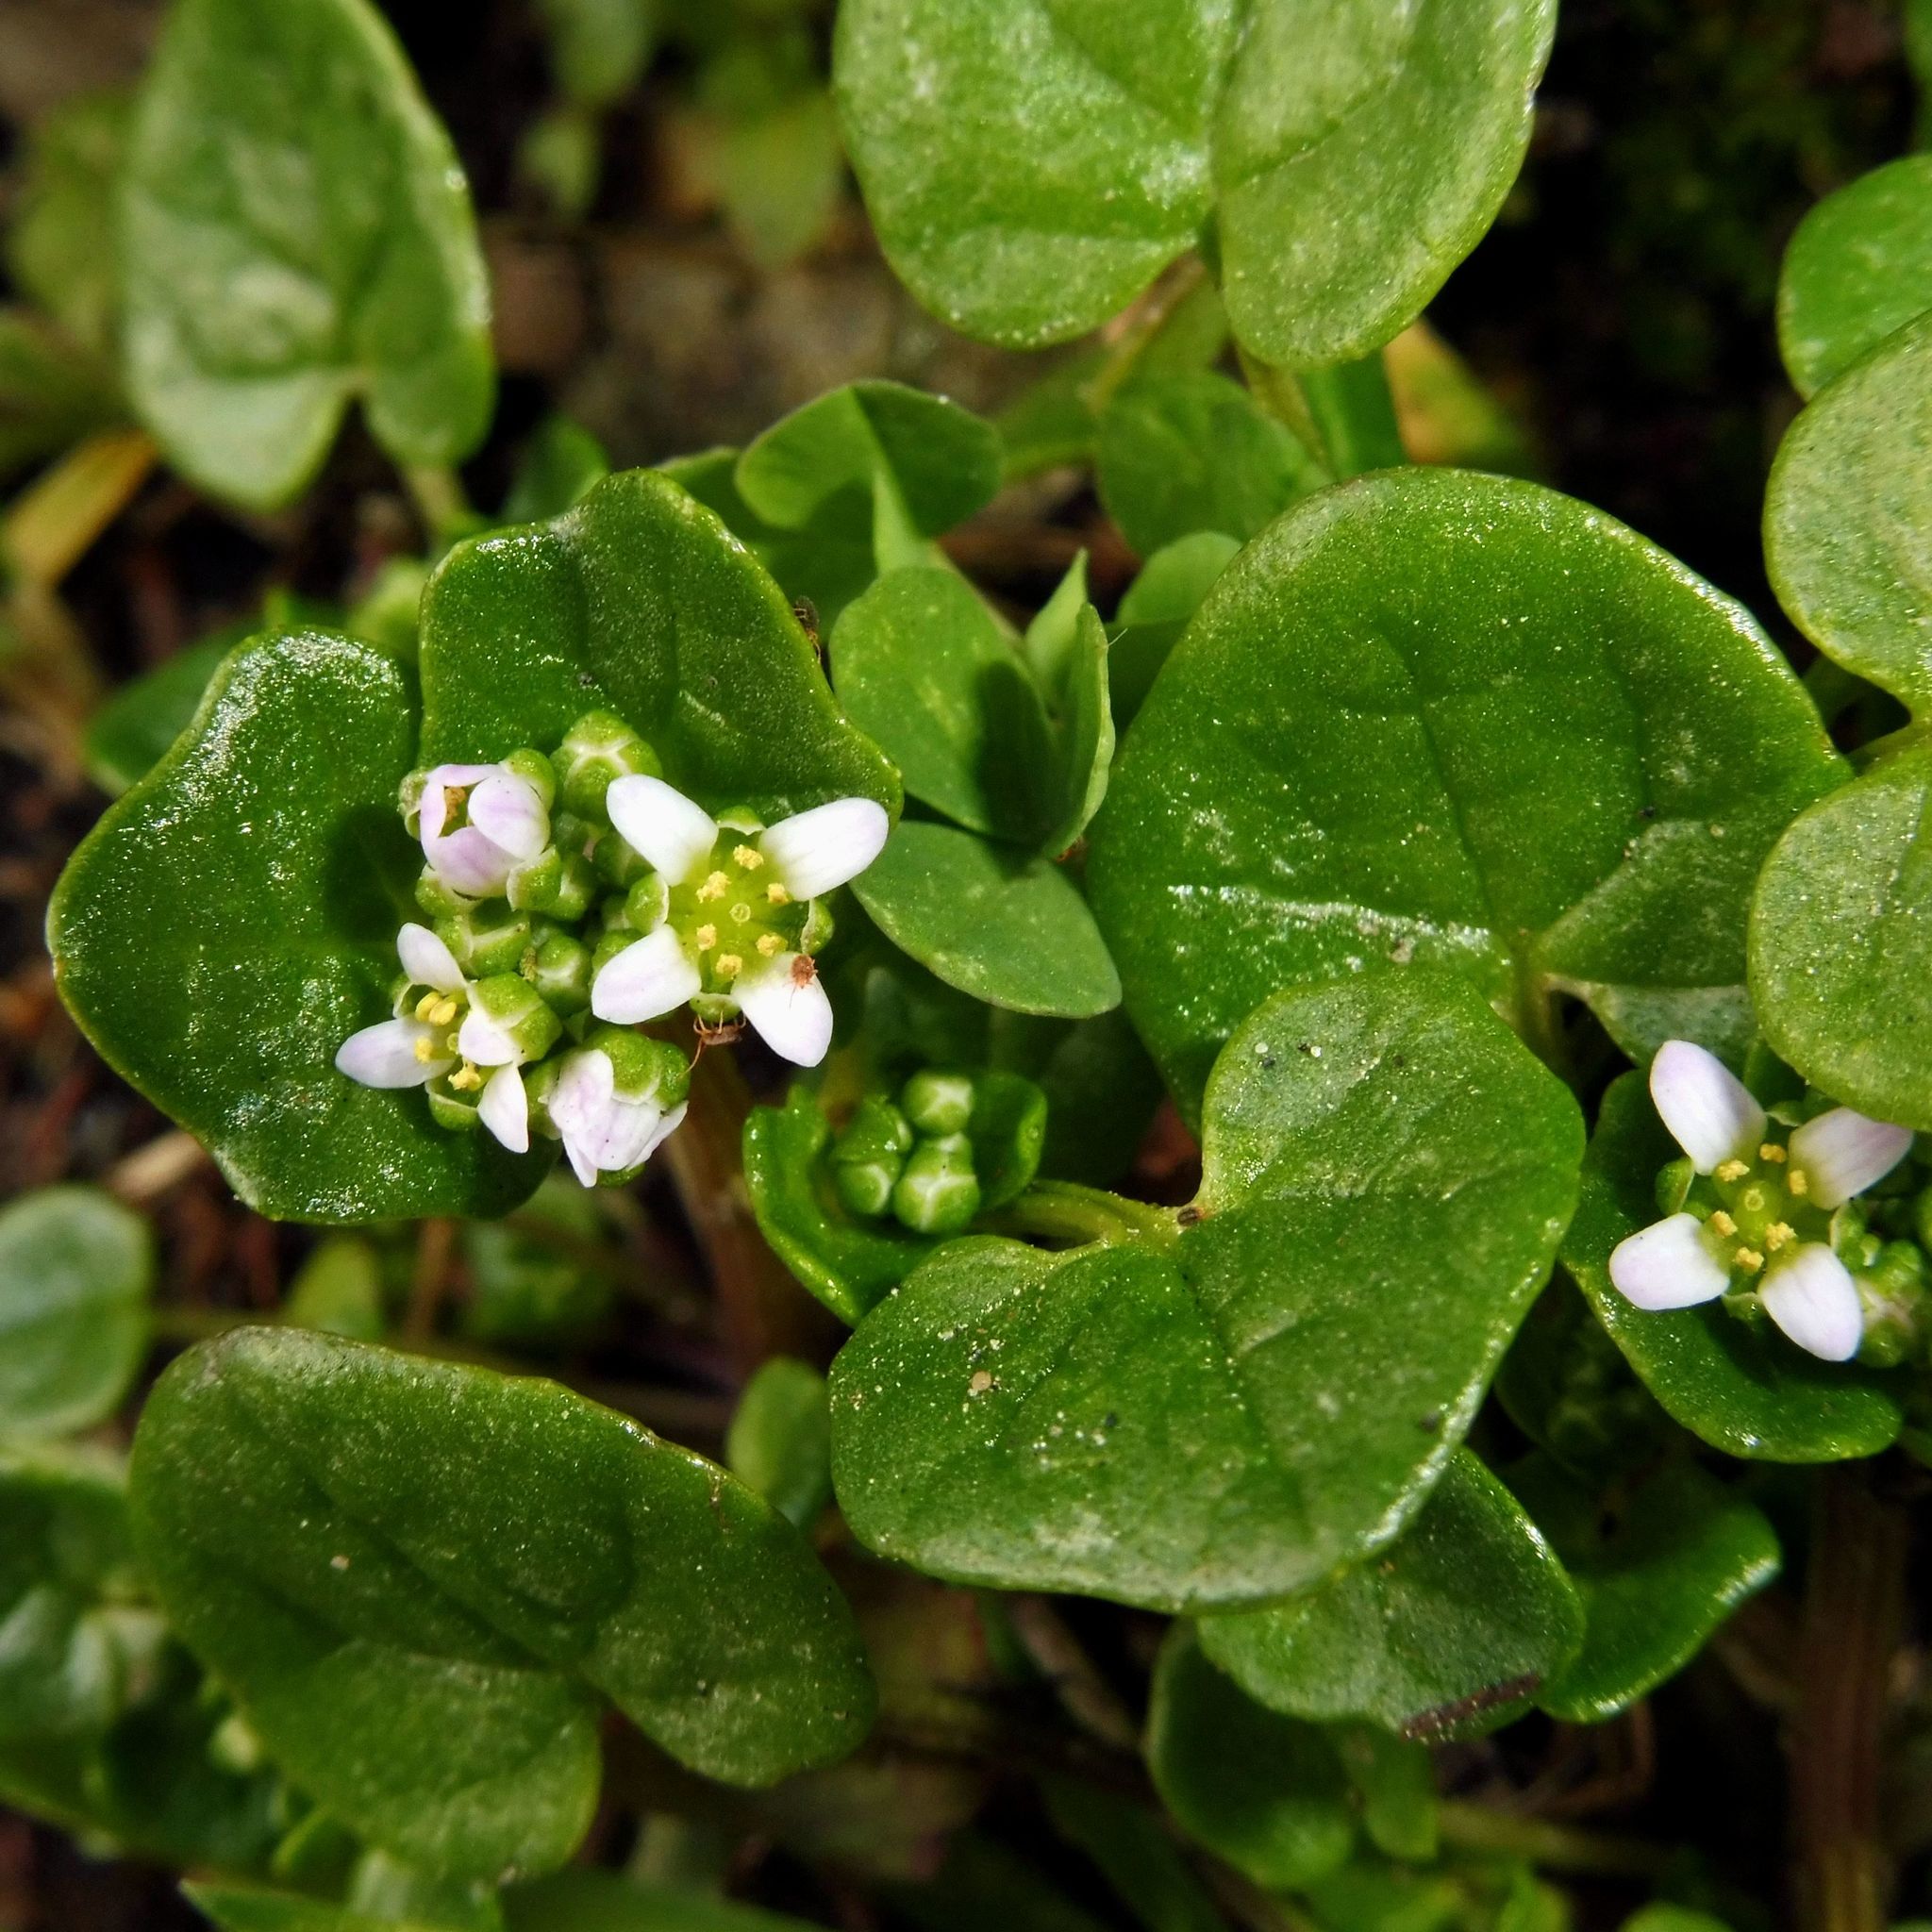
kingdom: Plantae
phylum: Tracheophyta
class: Magnoliopsida
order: Brassicales
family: Brassicaceae
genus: Cochlearia
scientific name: Cochlearia danica
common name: Early scurvygrass
